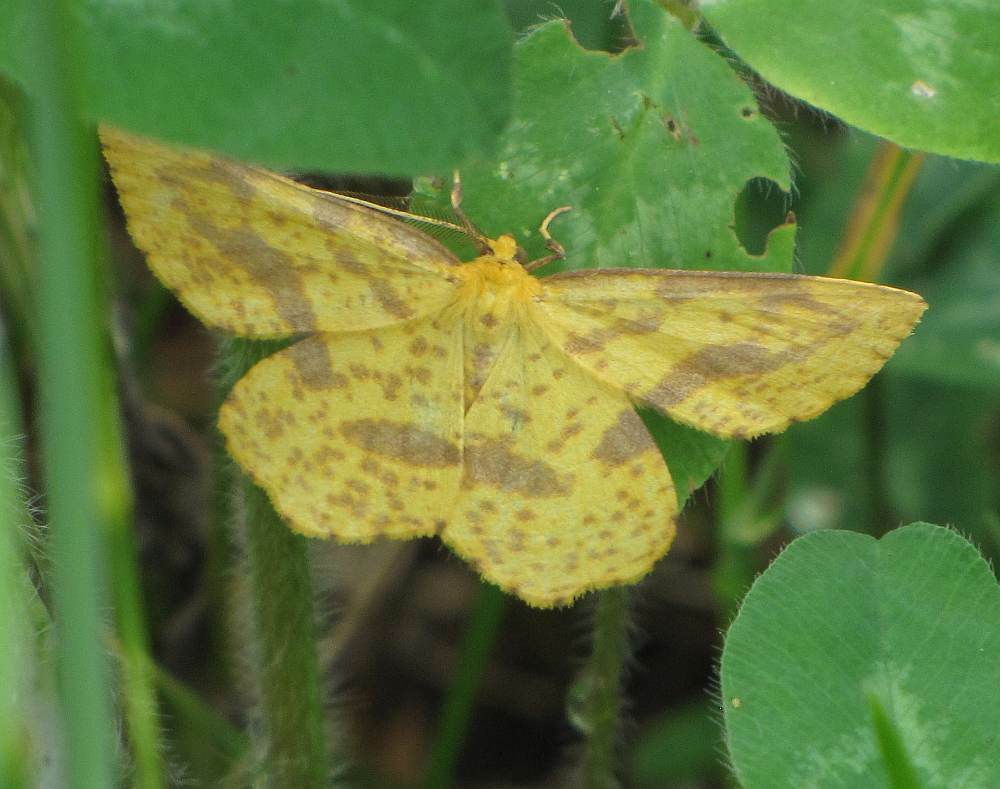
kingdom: Animalia
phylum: Arthropoda
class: Insecta
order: Lepidoptera
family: Geometridae
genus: Xanthotype
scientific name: Xanthotype
